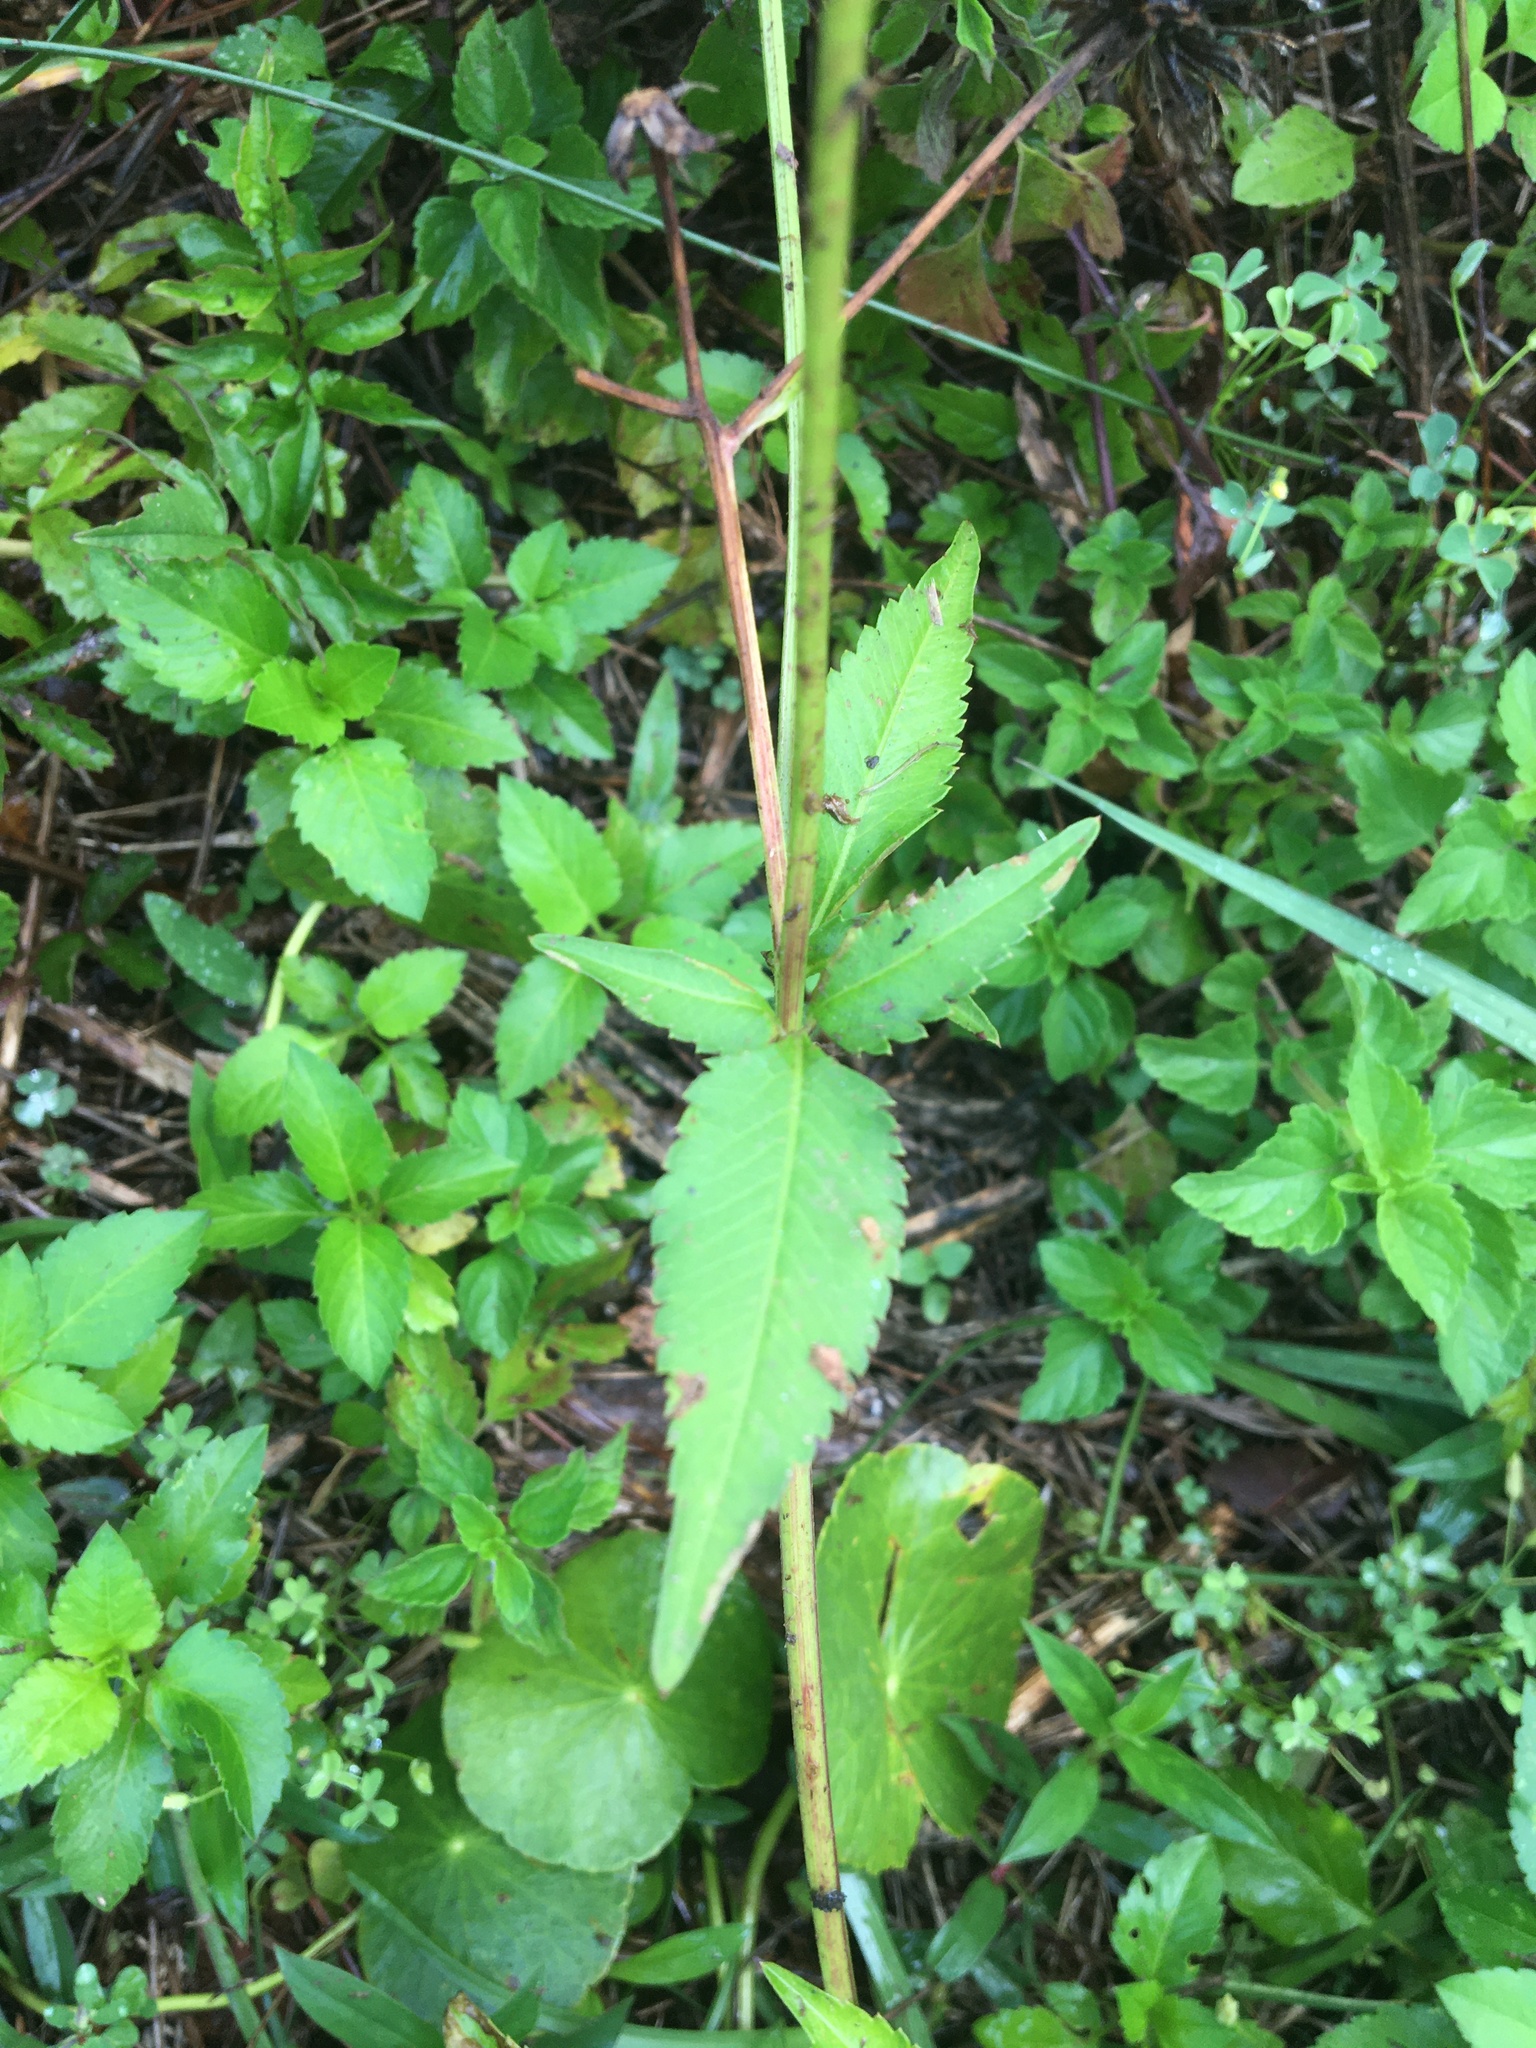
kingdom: Plantae
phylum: Tracheophyta
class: Magnoliopsida
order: Asterales
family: Asteraceae
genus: Bidens
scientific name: Bidens alba
